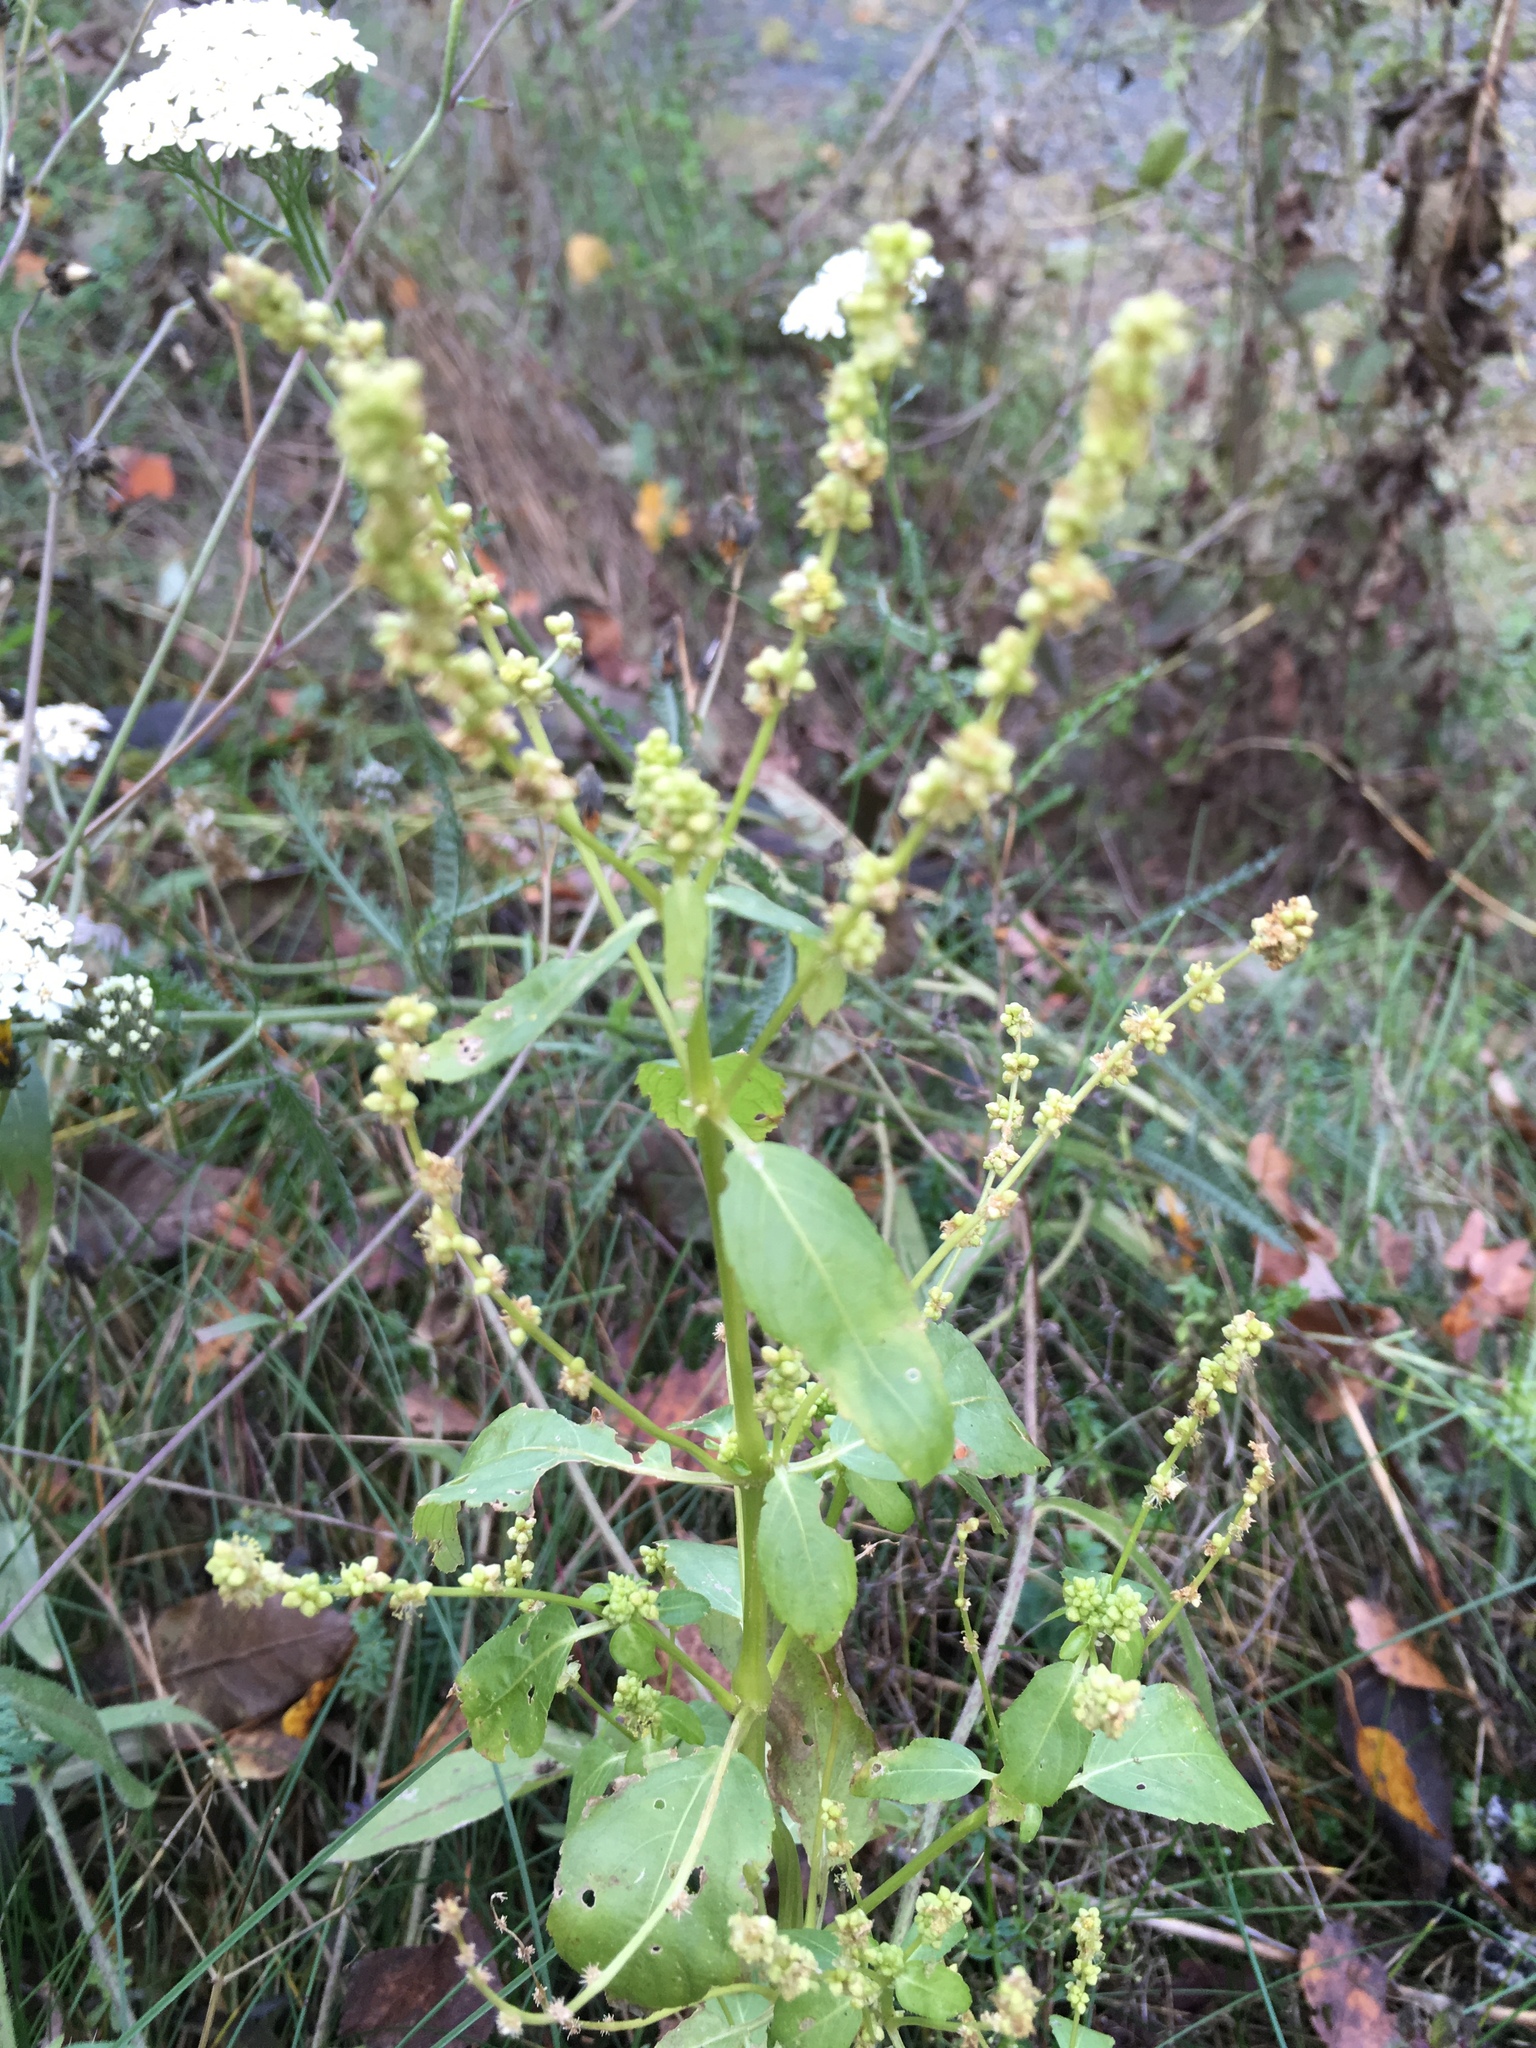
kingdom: Plantae
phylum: Tracheophyta
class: Magnoliopsida
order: Malpighiales
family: Euphorbiaceae
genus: Mercurialis
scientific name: Mercurialis annua
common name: Annual mercury
